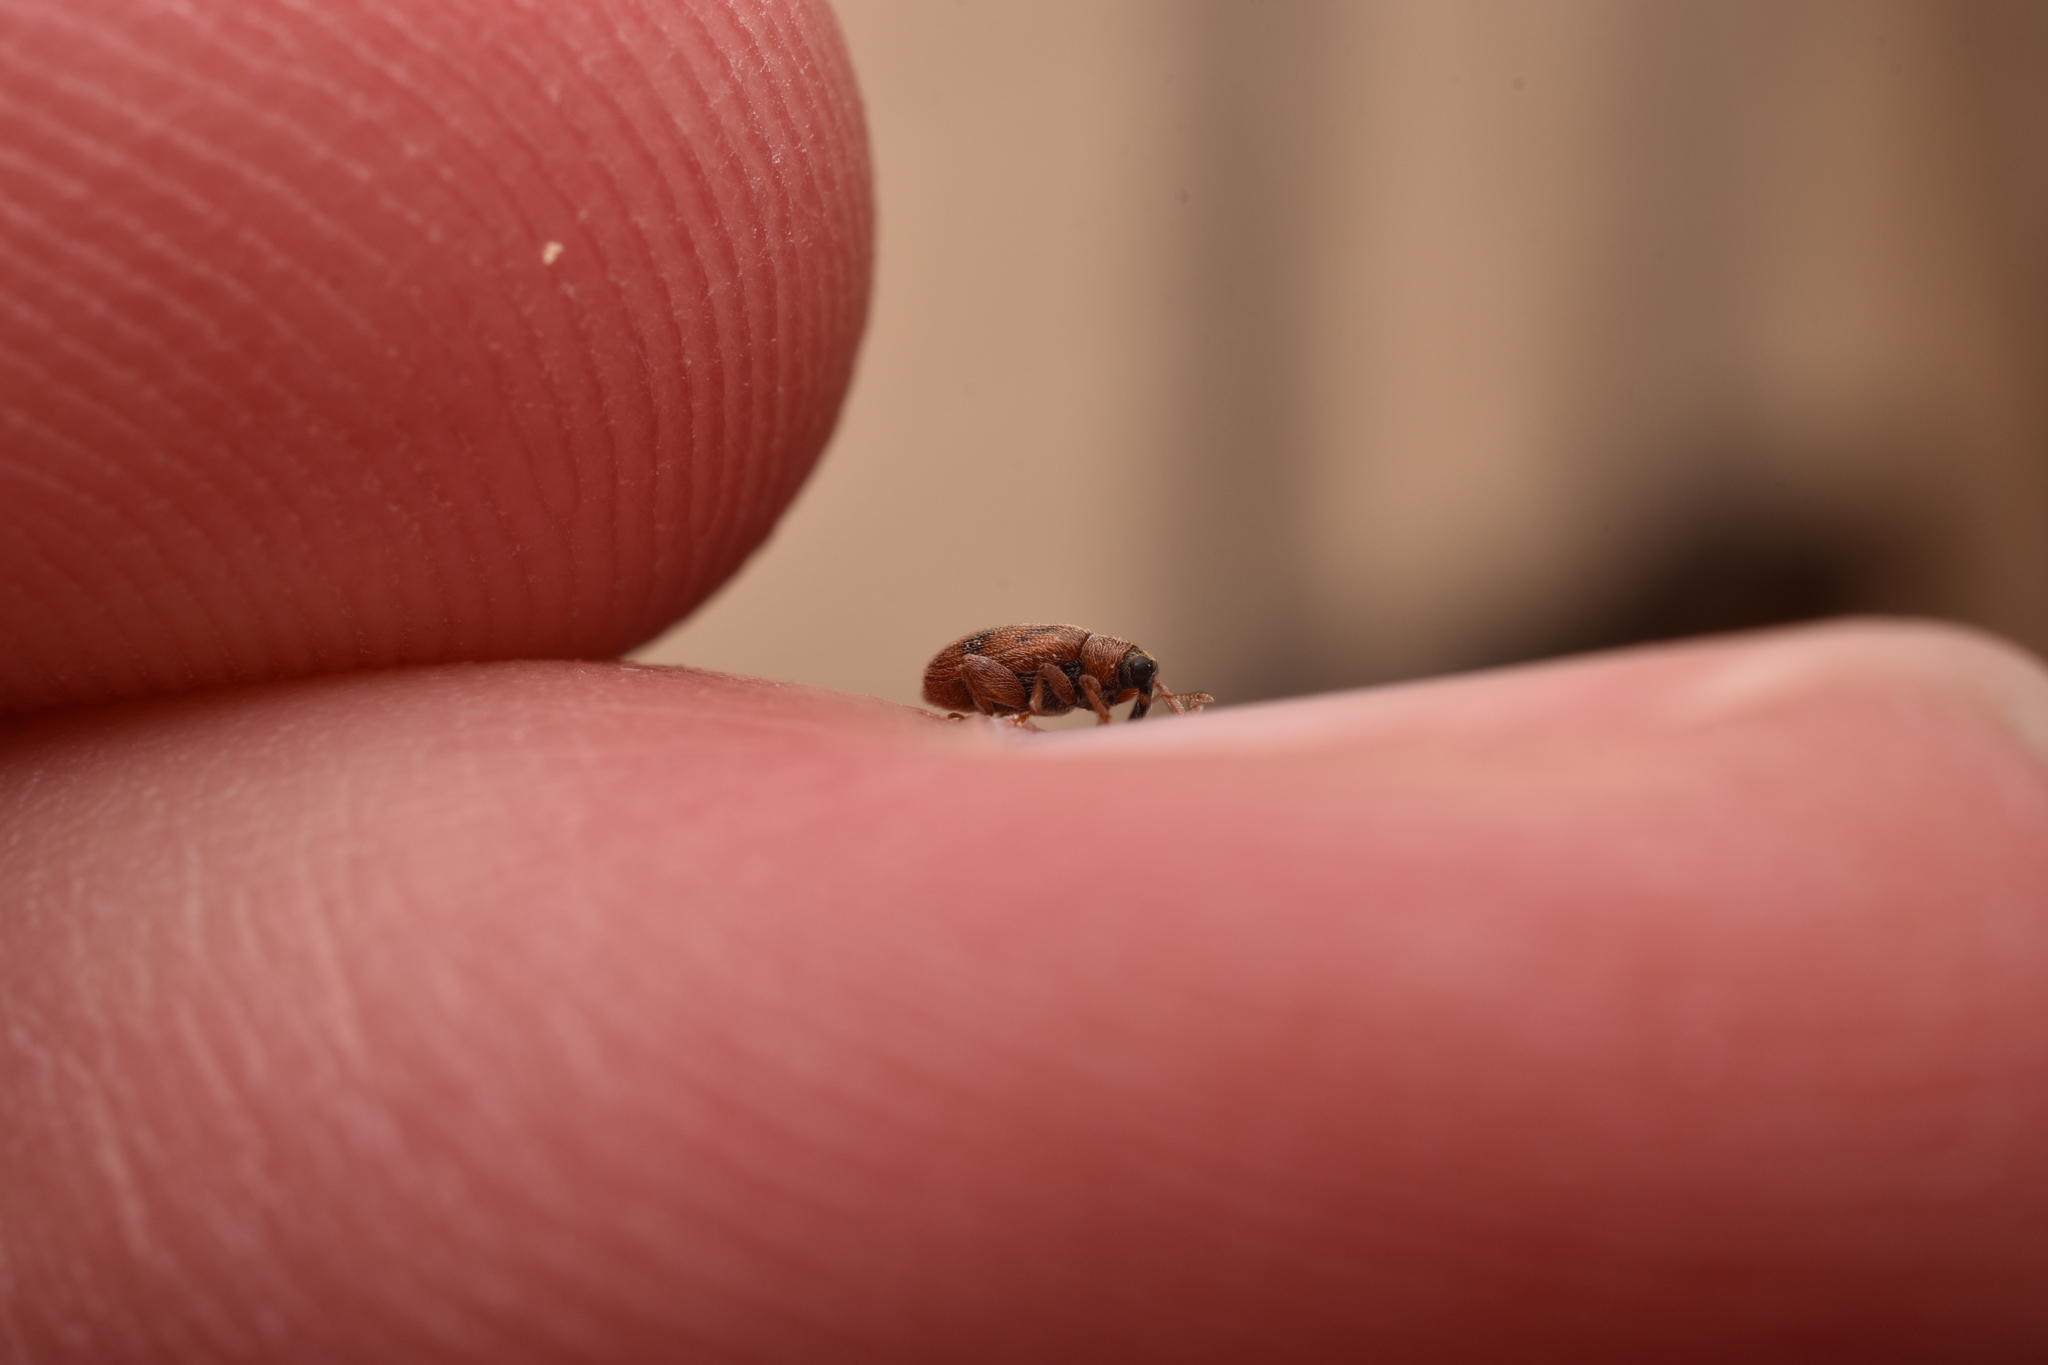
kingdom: Animalia
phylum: Arthropoda
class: Insecta
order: Coleoptera
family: Curculionidae
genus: Orchestes
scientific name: Orchestes steppensis
